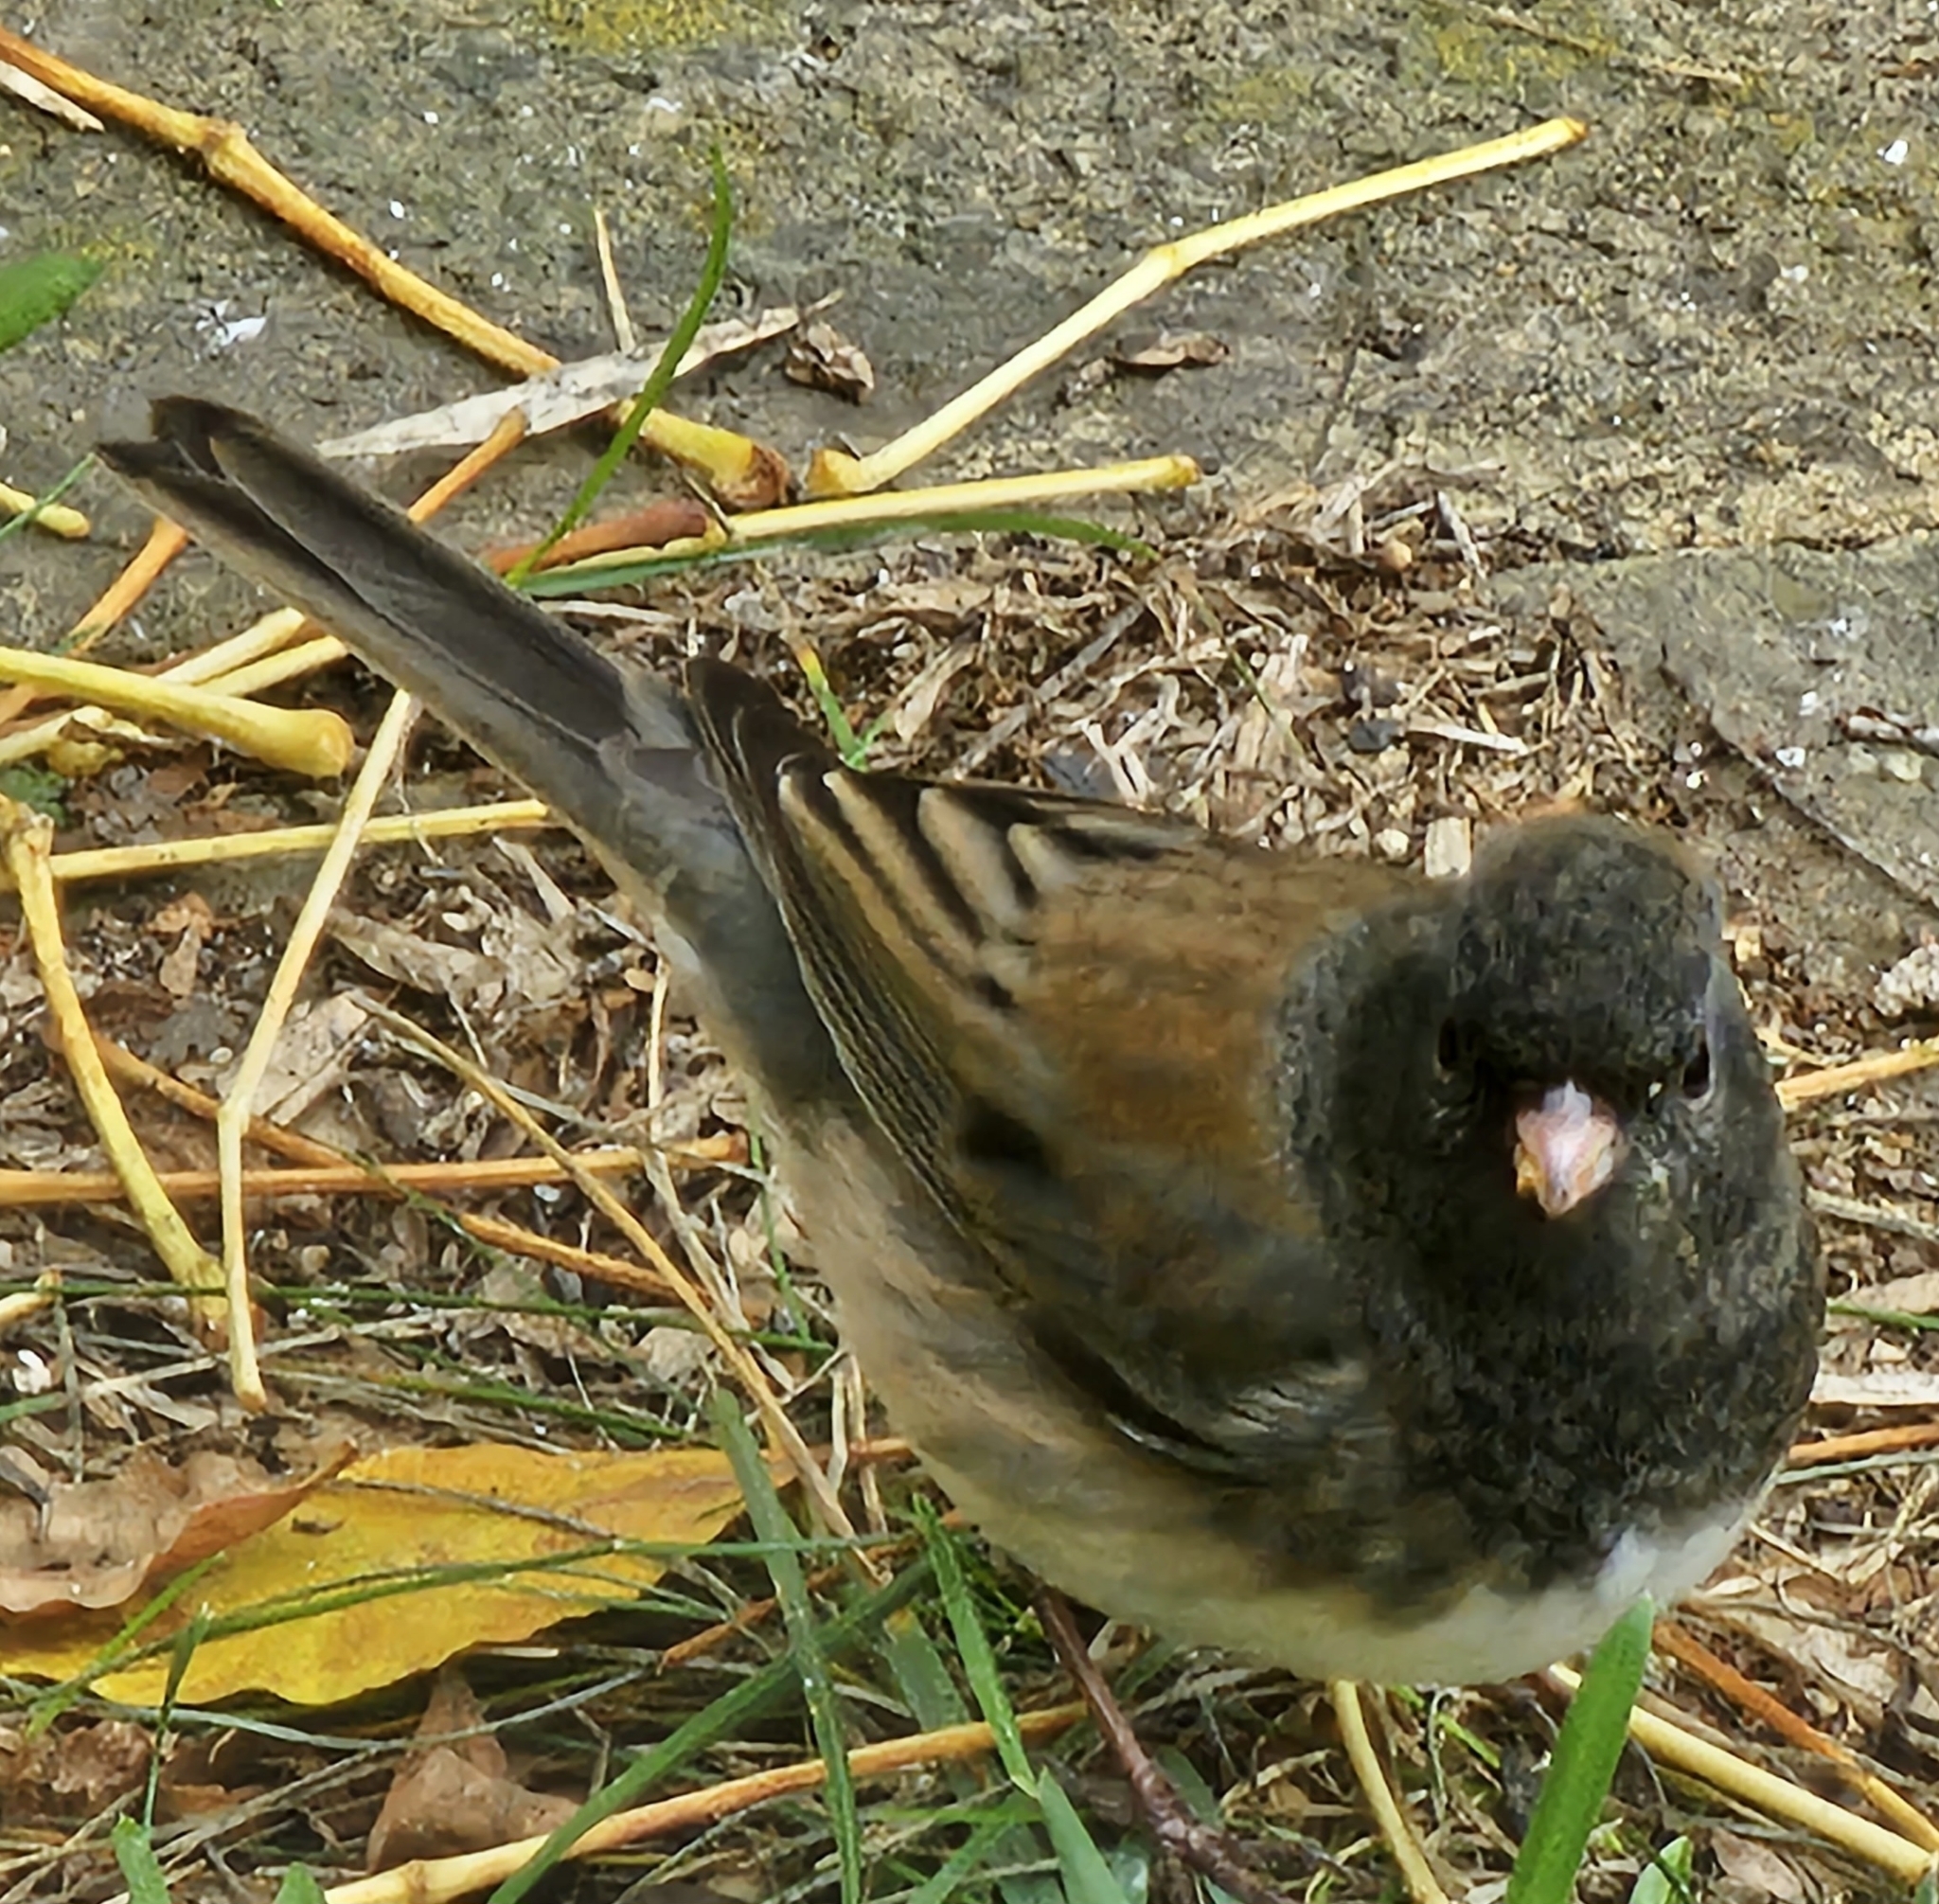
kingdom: Animalia
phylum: Chordata
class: Aves
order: Passeriformes
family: Passerellidae
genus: Junco
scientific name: Junco hyemalis
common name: Dark-eyed junco
